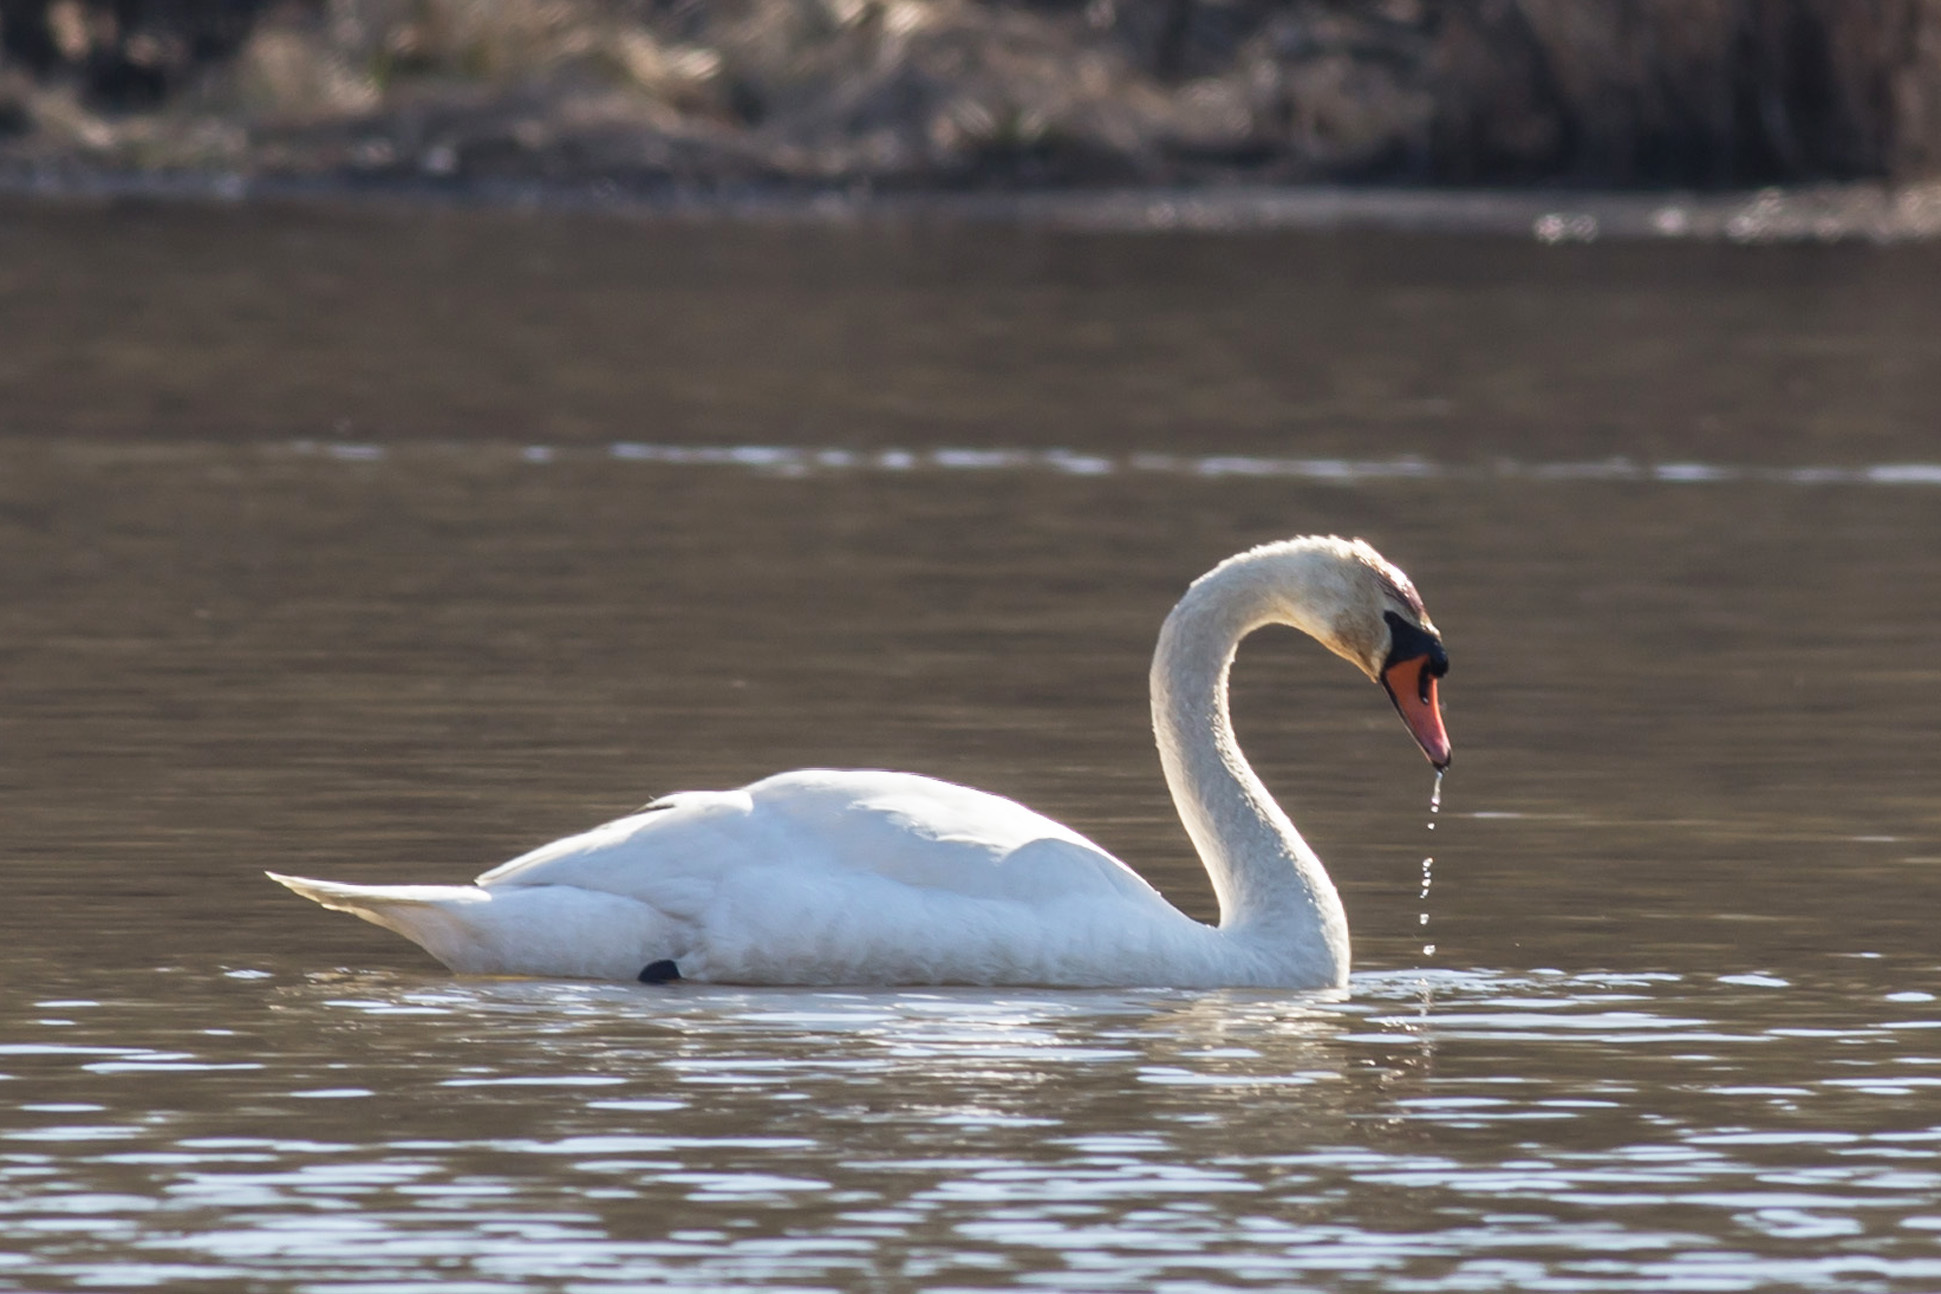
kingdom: Animalia
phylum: Chordata
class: Aves
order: Anseriformes
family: Anatidae
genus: Cygnus
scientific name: Cygnus olor
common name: Mute swan
